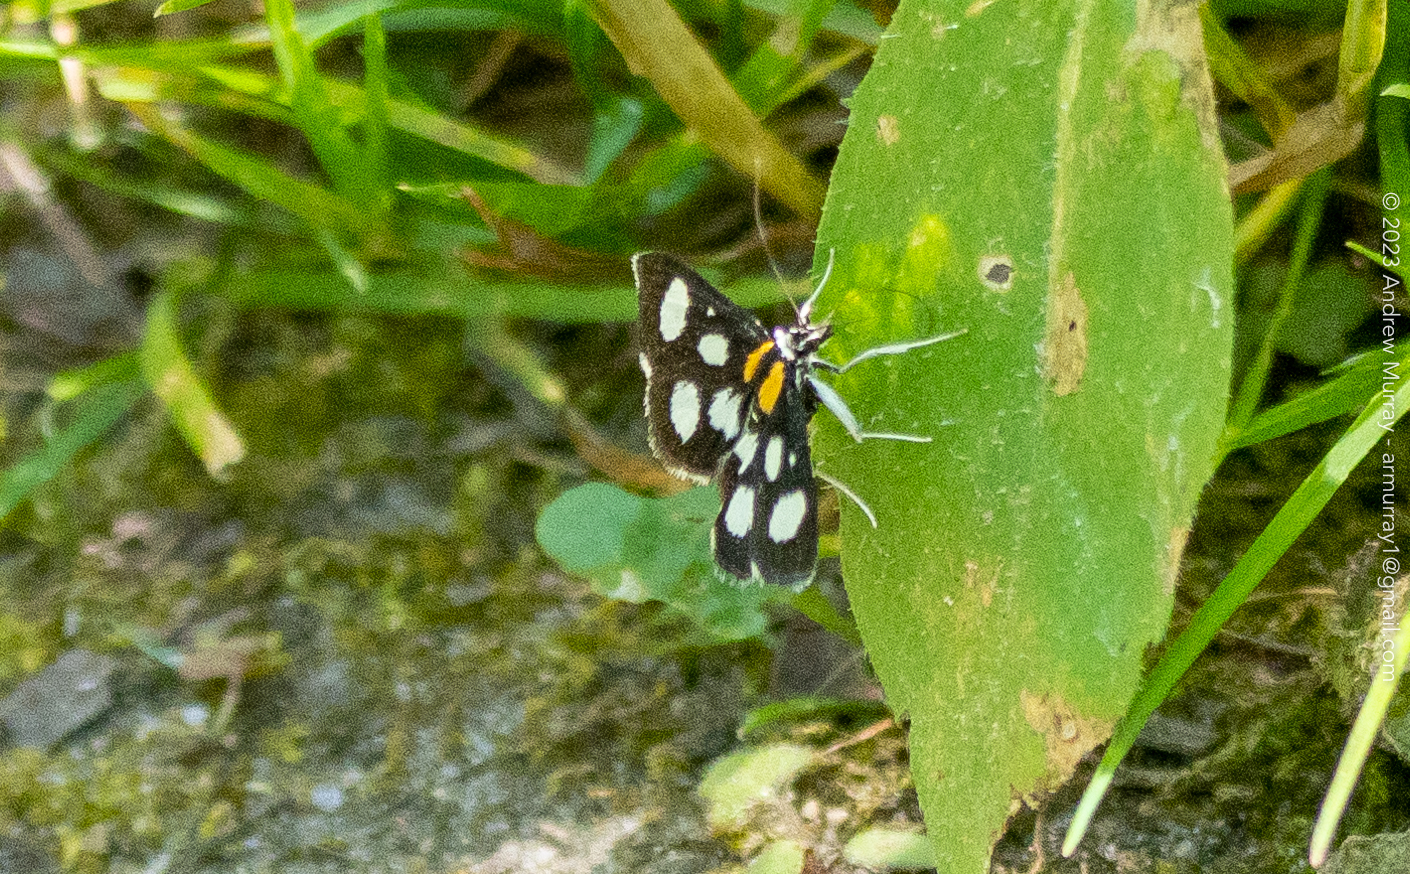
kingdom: Animalia
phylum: Arthropoda
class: Insecta
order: Lepidoptera
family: Crambidae
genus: Anania
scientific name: Anania funebris
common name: White-spotted sable moth
